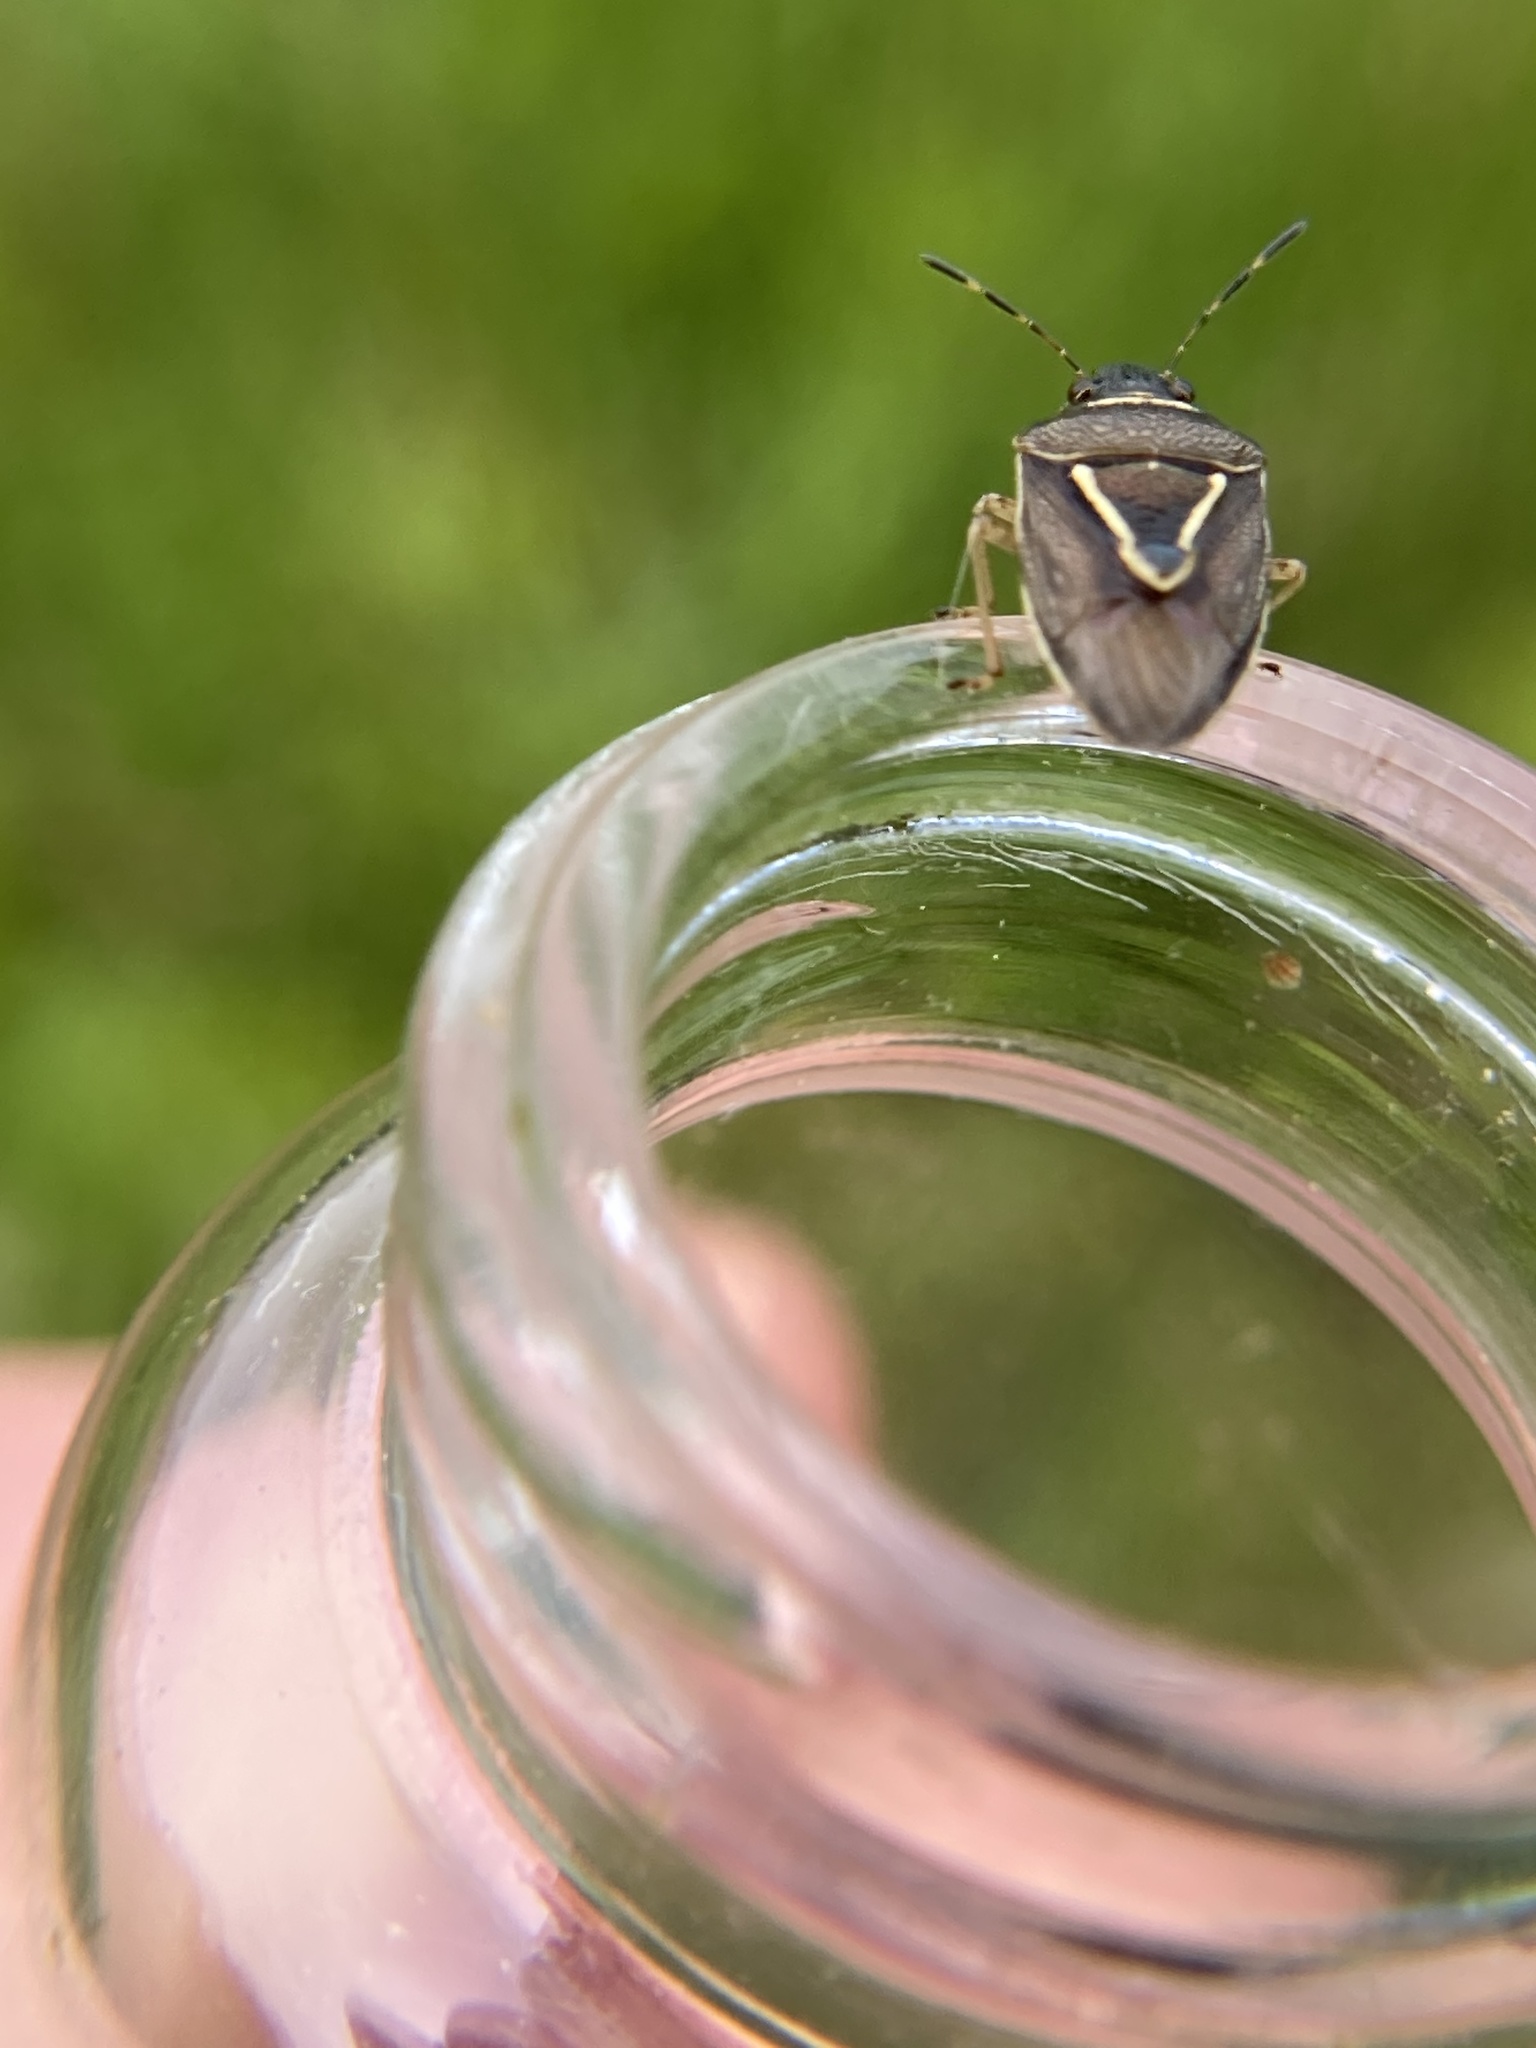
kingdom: Animalia
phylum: Arthropoda
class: Insecta
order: Hemiptera
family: Pentatomidae
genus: Mormidea
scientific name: Mormidea lugens
